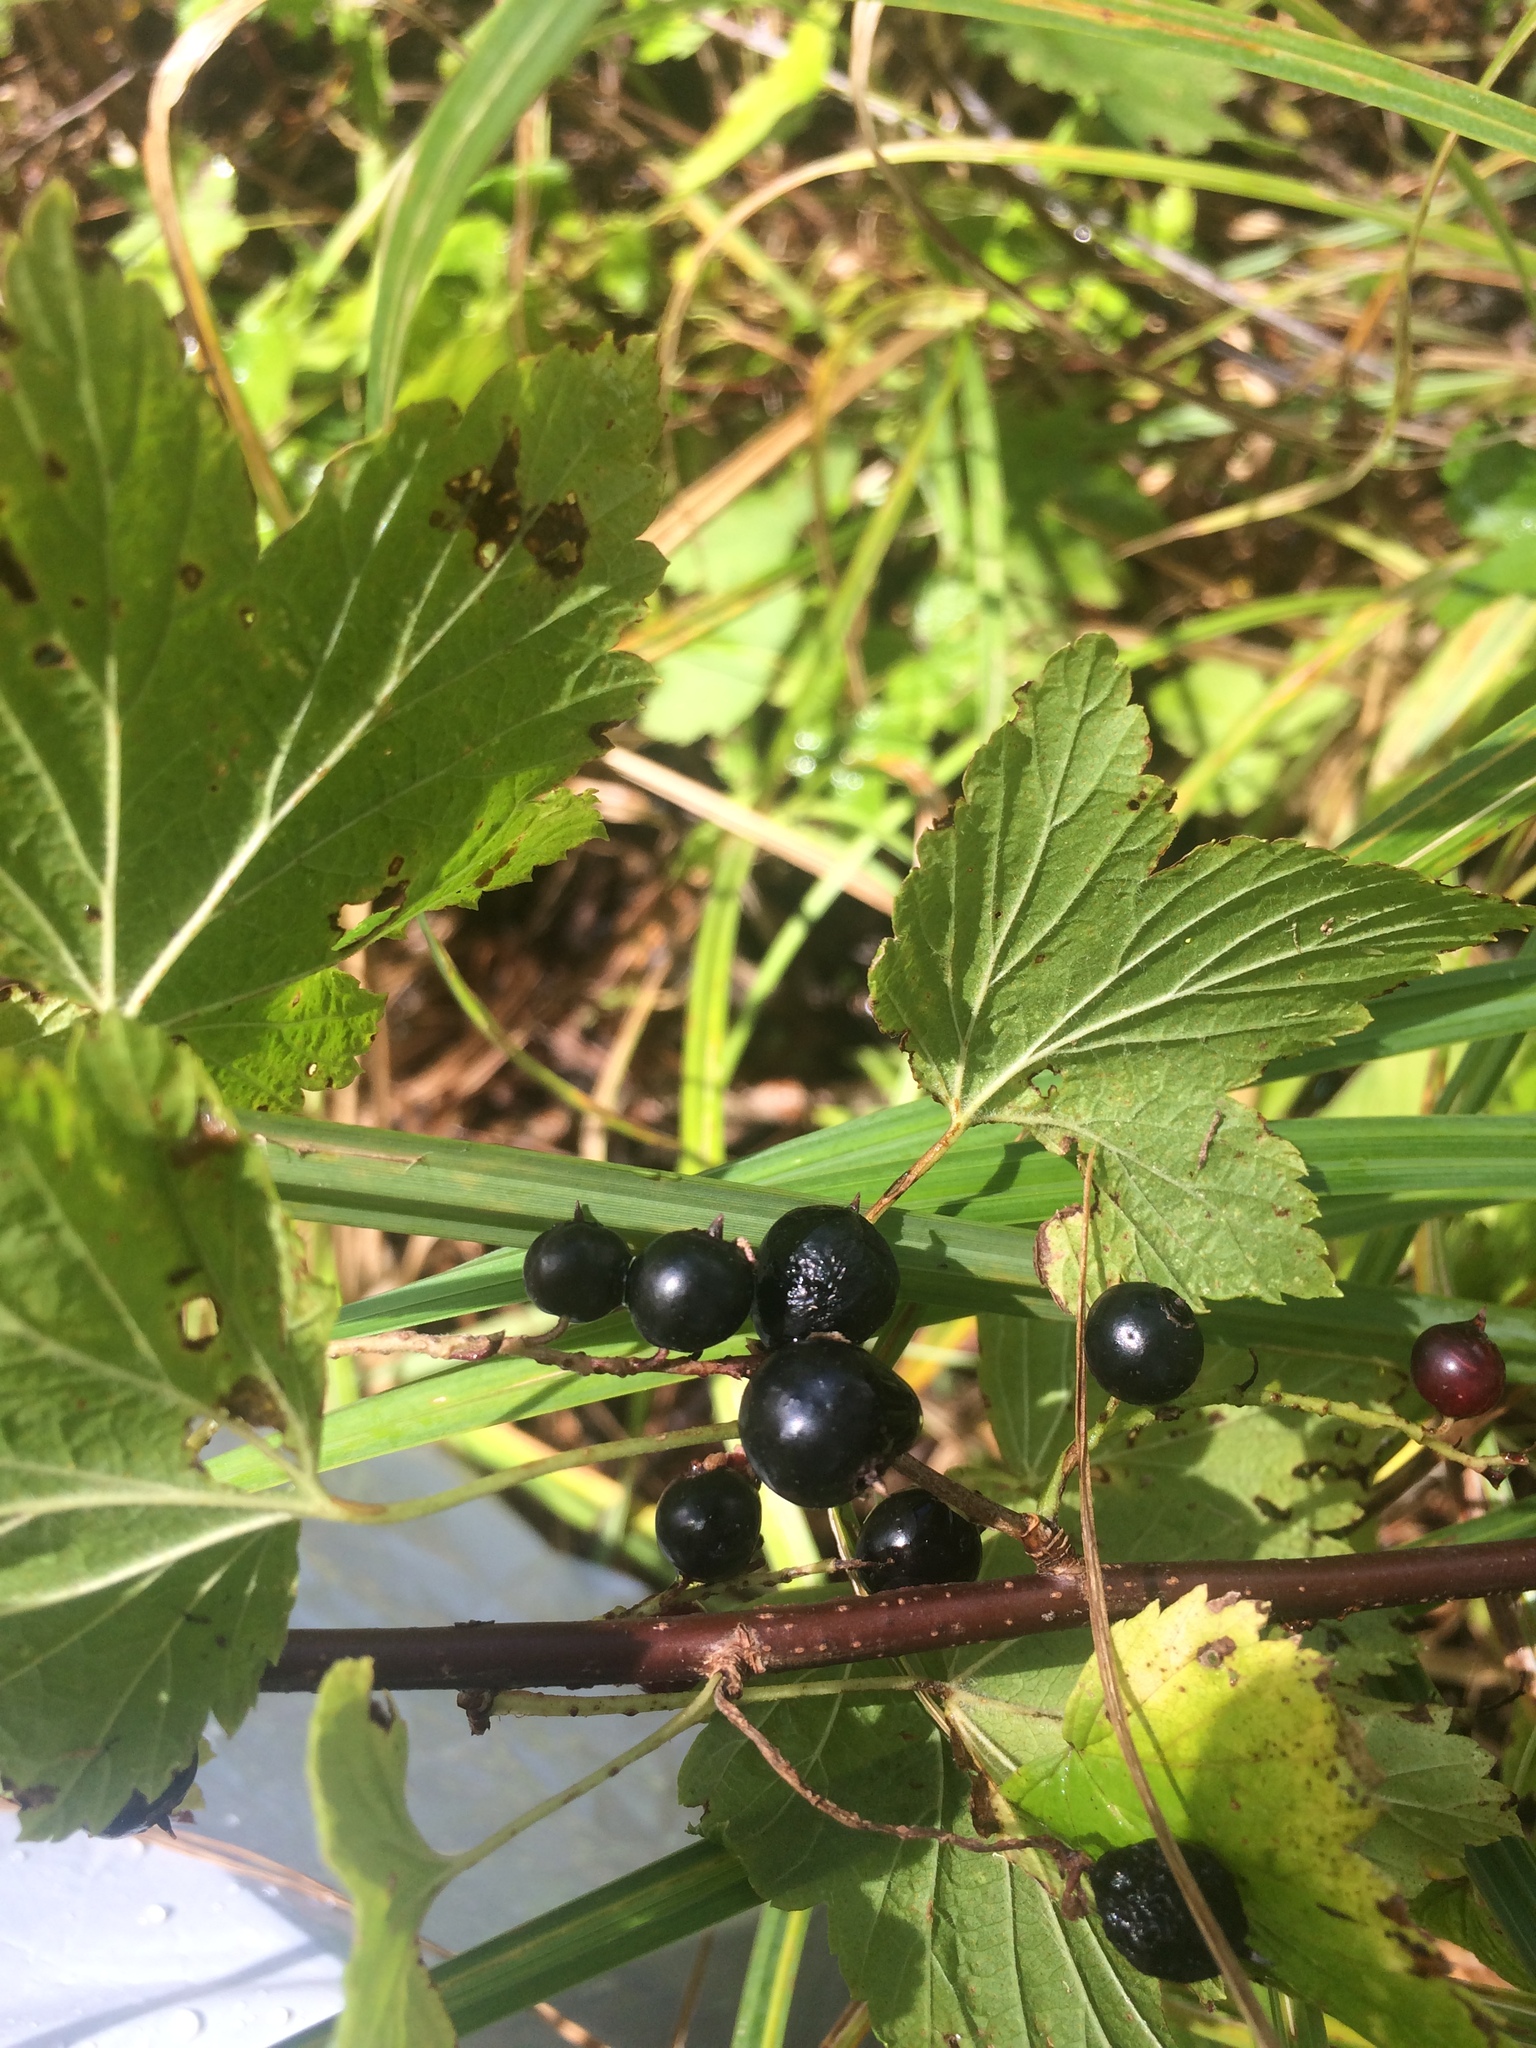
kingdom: Plantae
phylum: Tracheophyta
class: Magnoliopsida
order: Saxifragales
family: Grossulariaceae
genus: Ribes
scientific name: Ribes americanum
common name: American black currant
